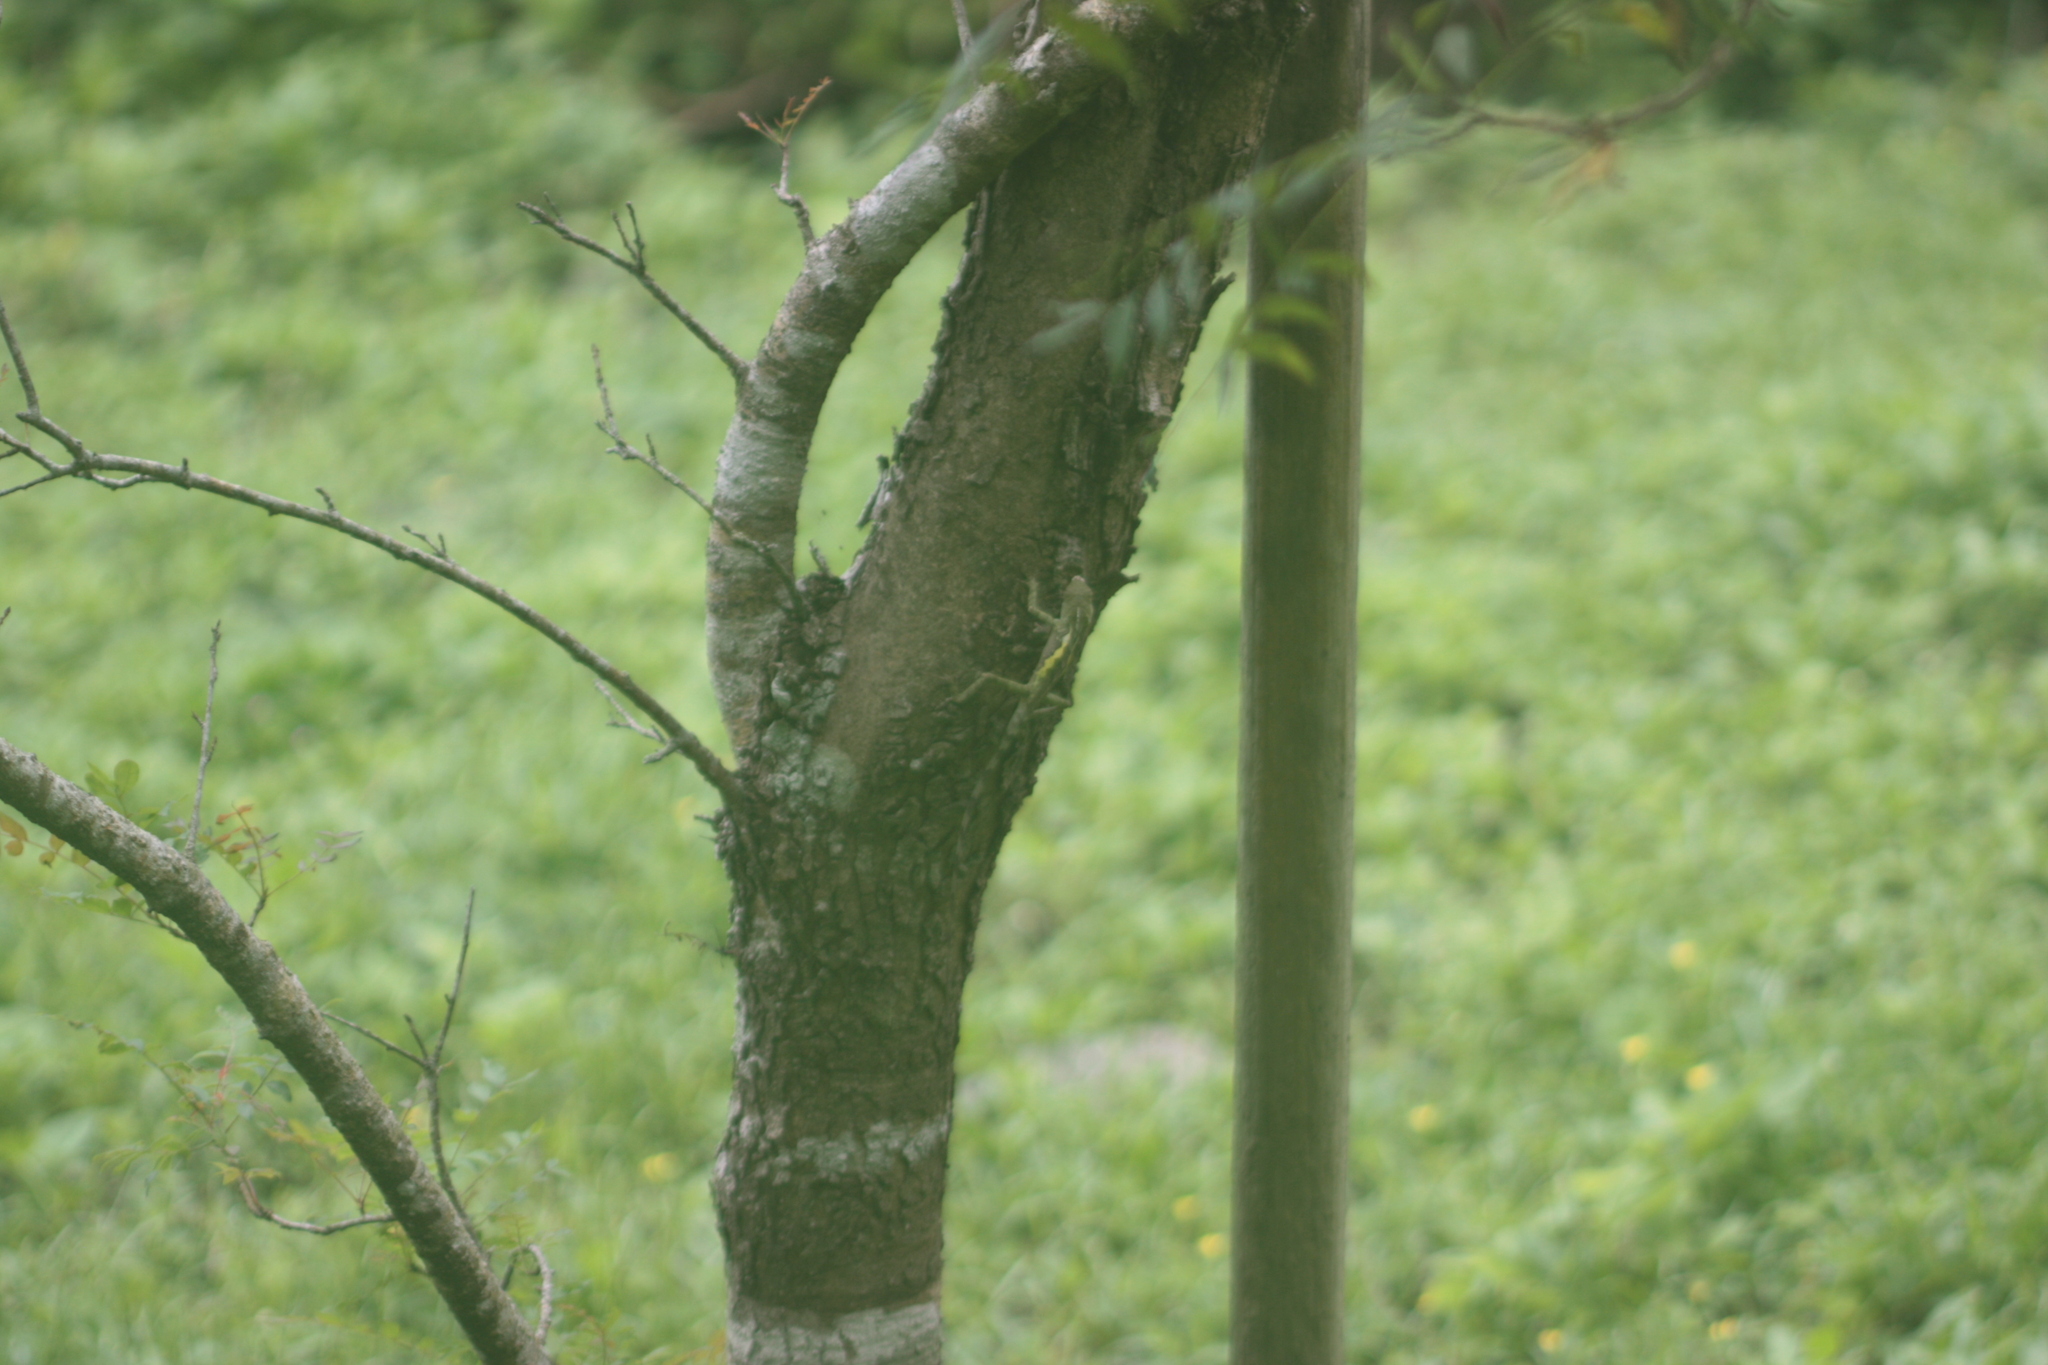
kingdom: Animalia
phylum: Chordata
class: Squamata
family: Agamidae
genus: Diploderma
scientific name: Diploderma swinhonis
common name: Taiwan japalure
